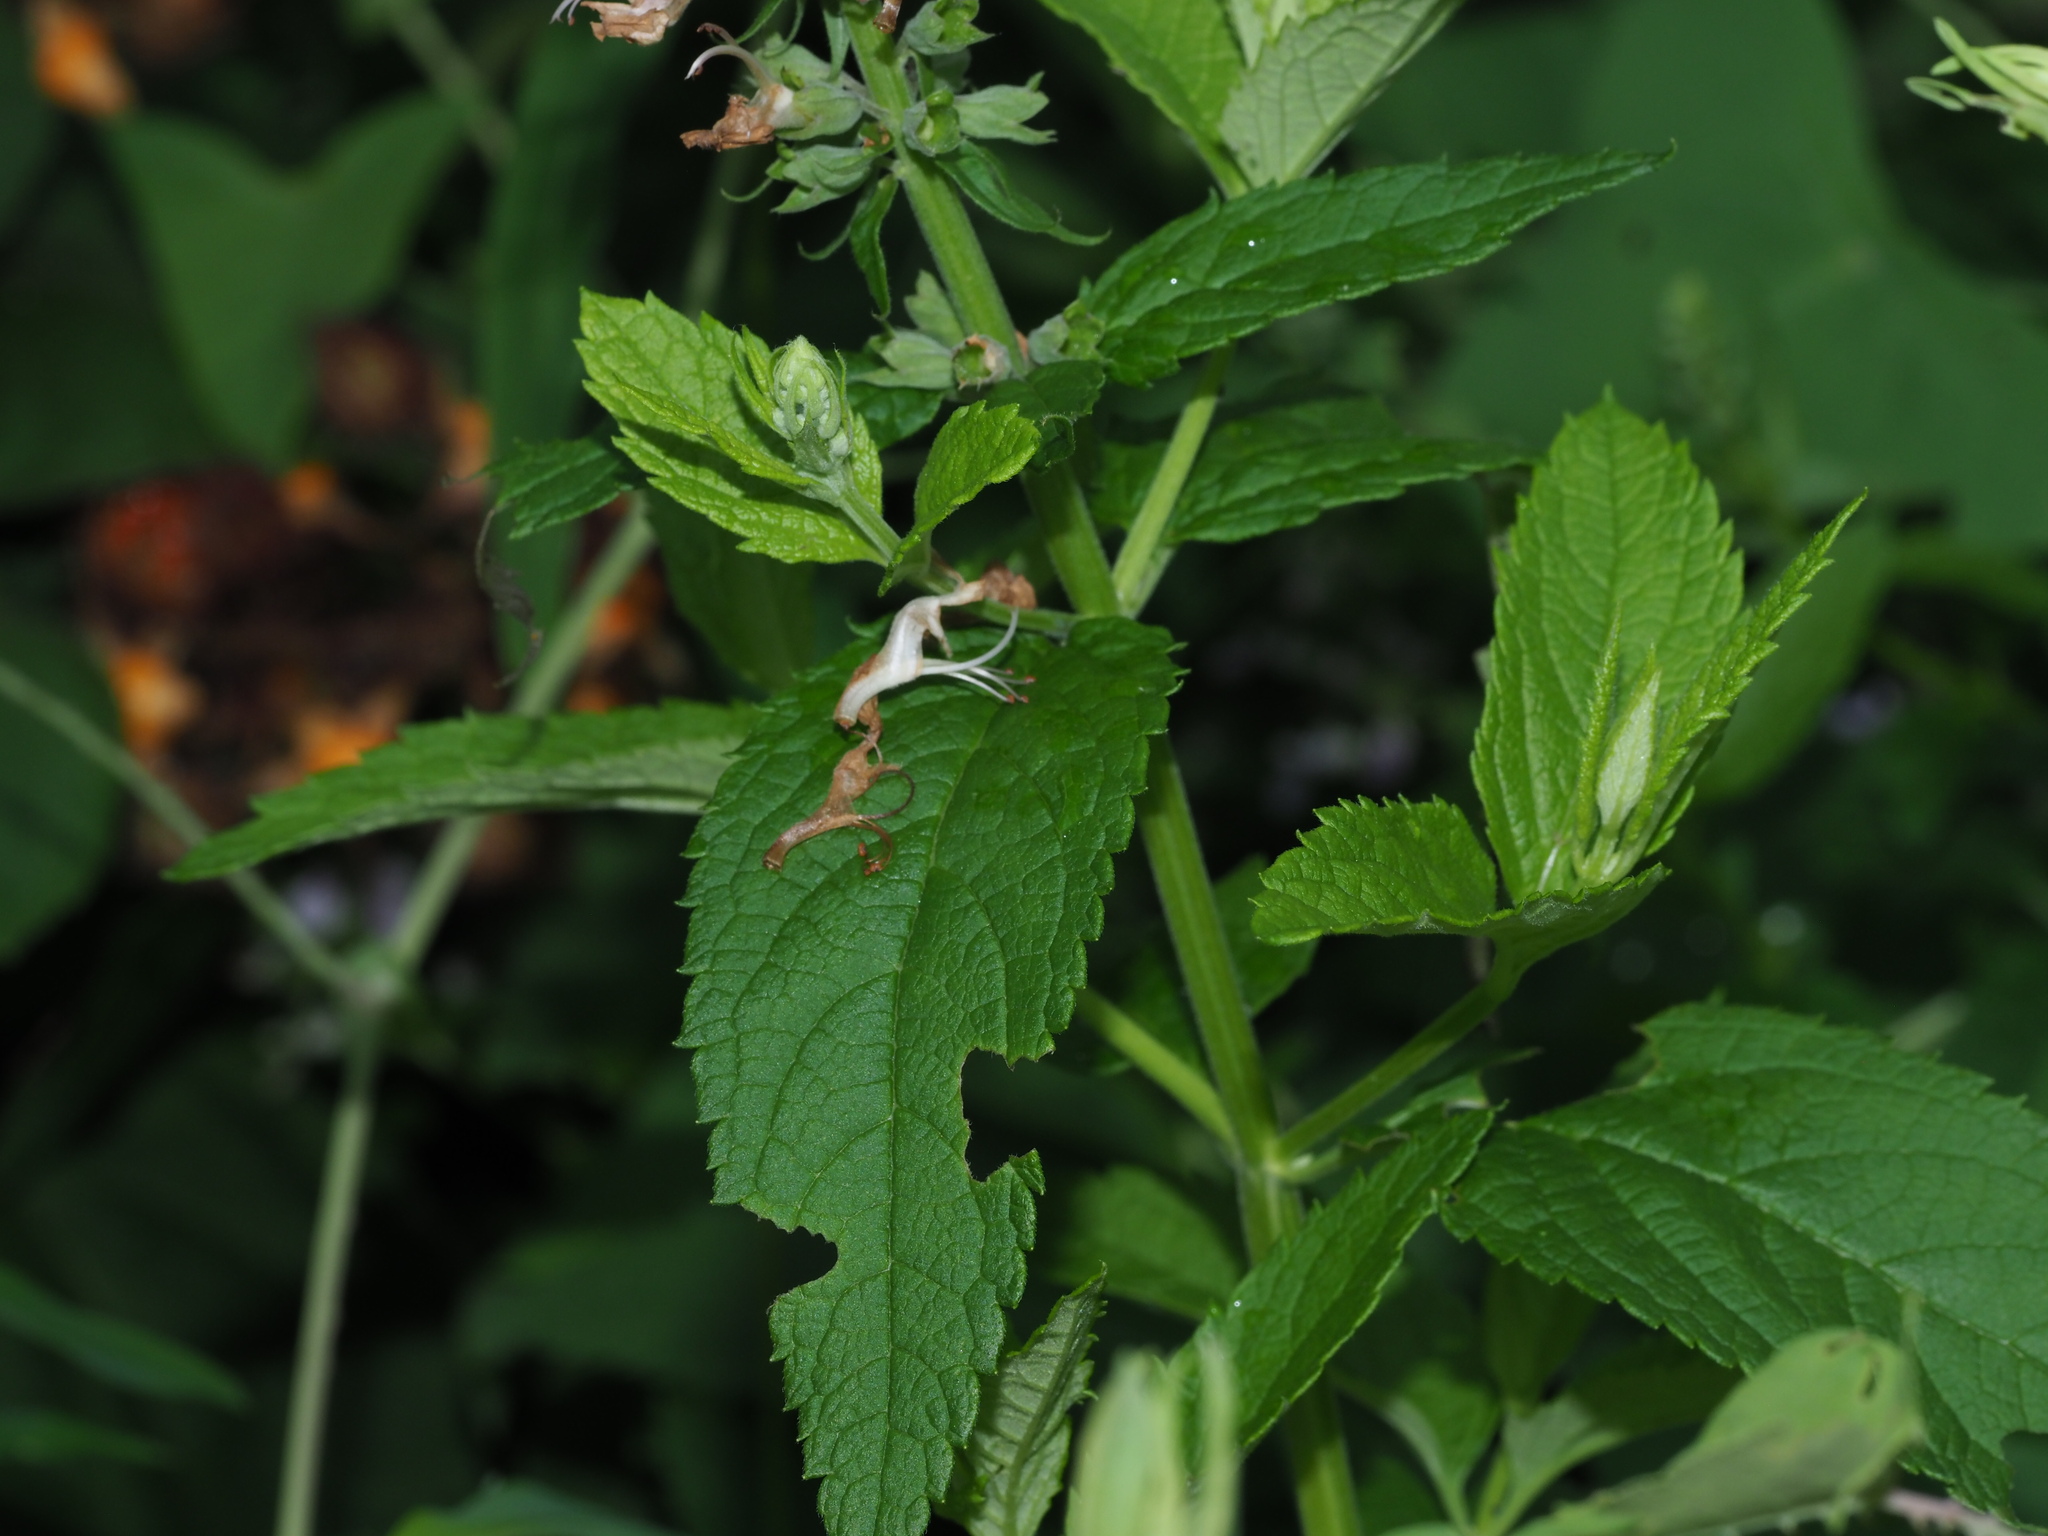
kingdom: Plantae
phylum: Tracheophyta
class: Magnoliopsida
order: Lamiales
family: Lamiaceae
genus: Teucrium
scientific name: Teucrium canadense
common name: American germander
